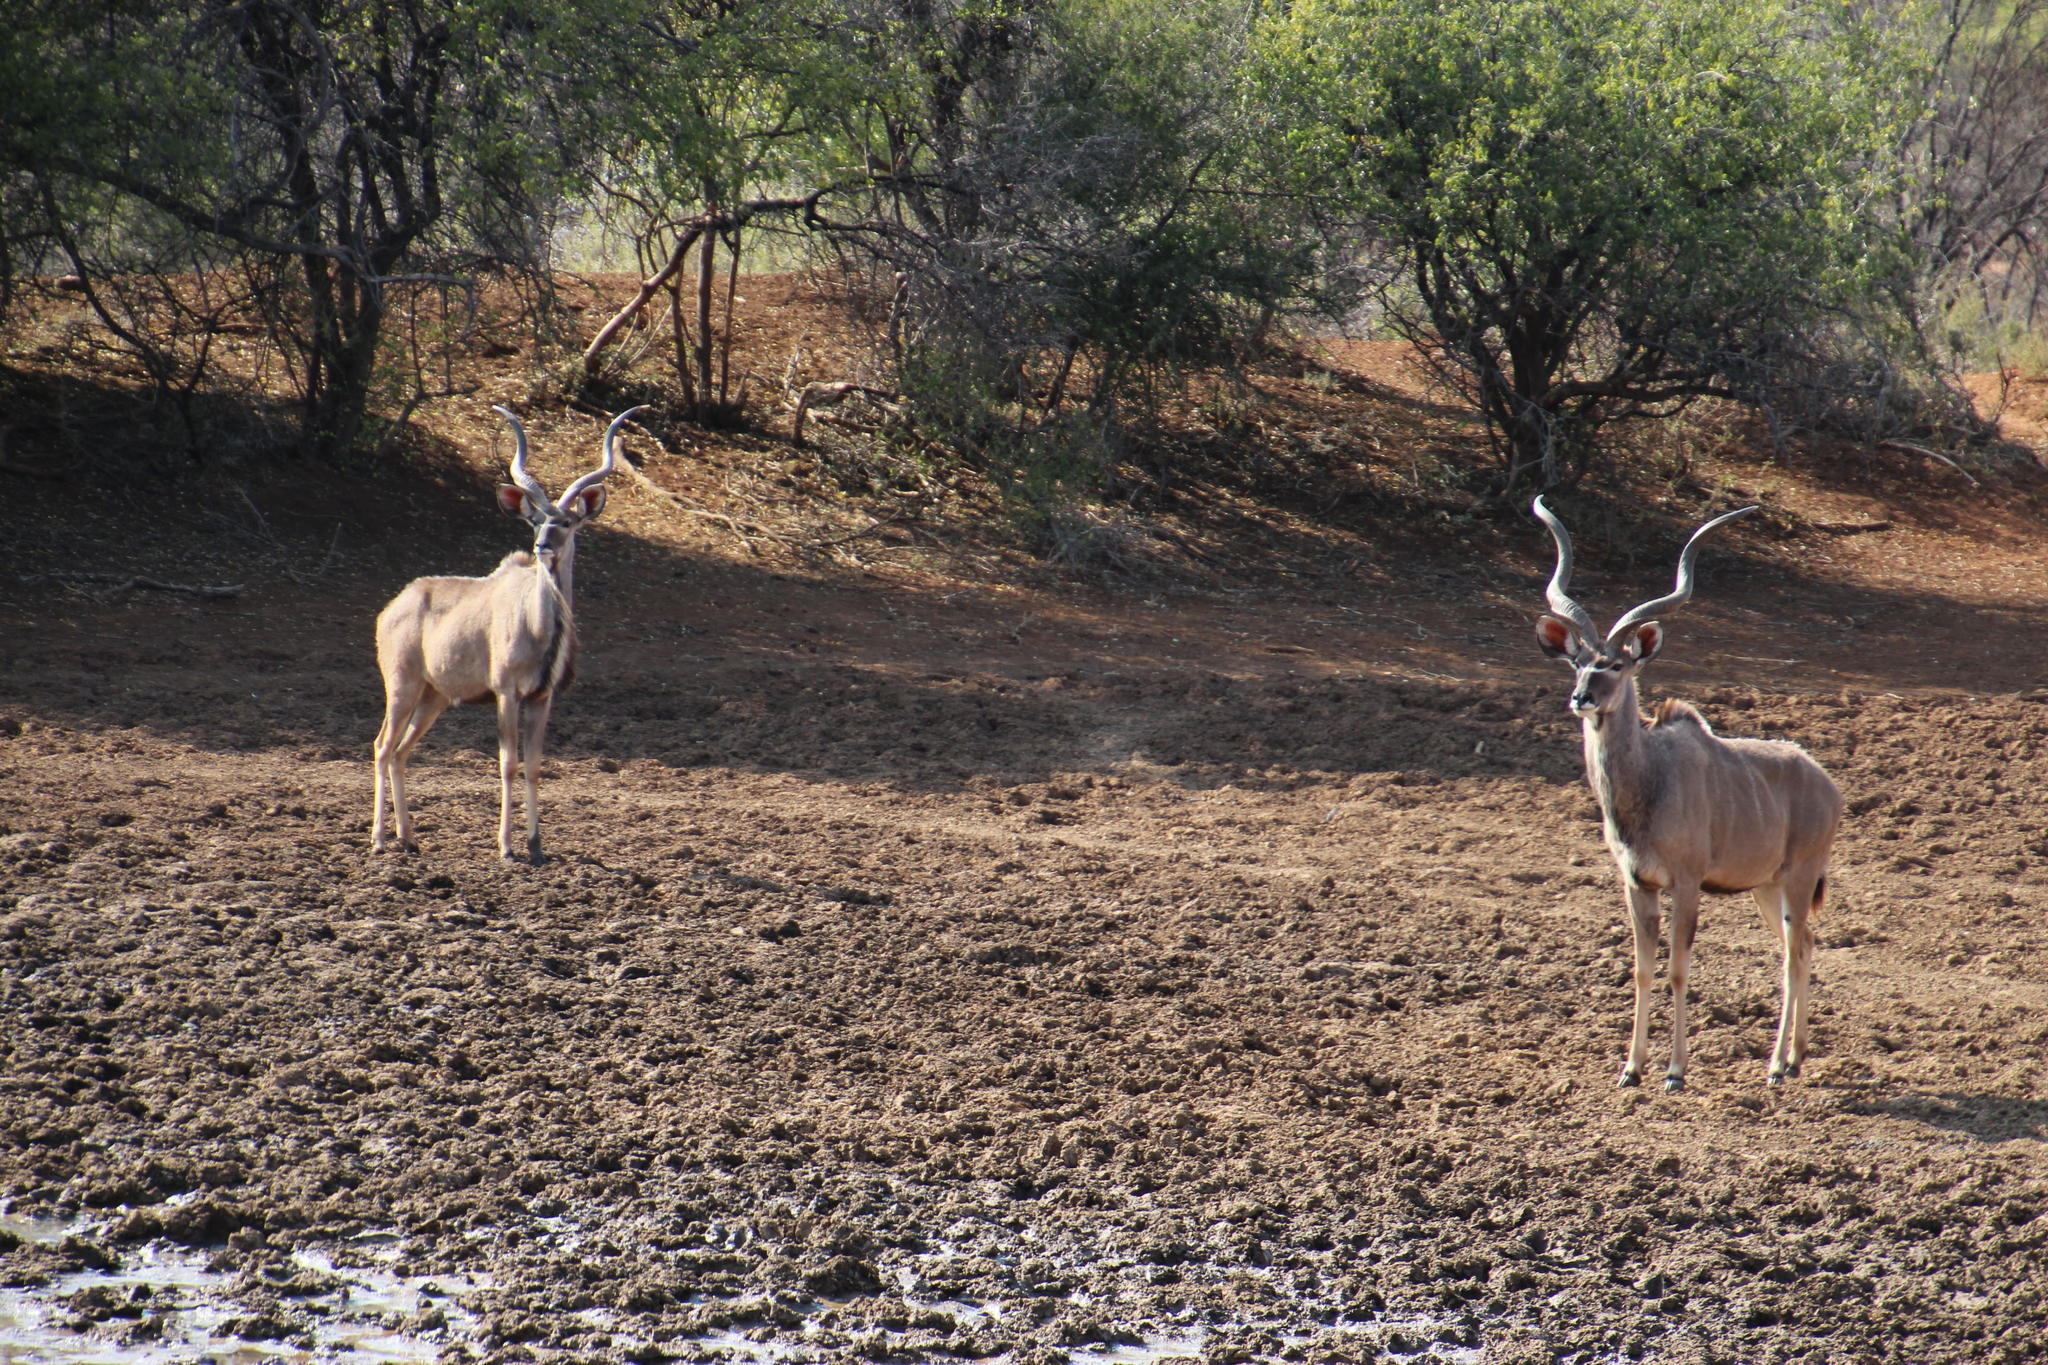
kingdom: Animalia
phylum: Chordata
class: Mammalia
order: Artiodactyla
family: Bovidae
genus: Tragelaphus
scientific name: Tragelaphus strepsiceros
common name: Greater kudu
